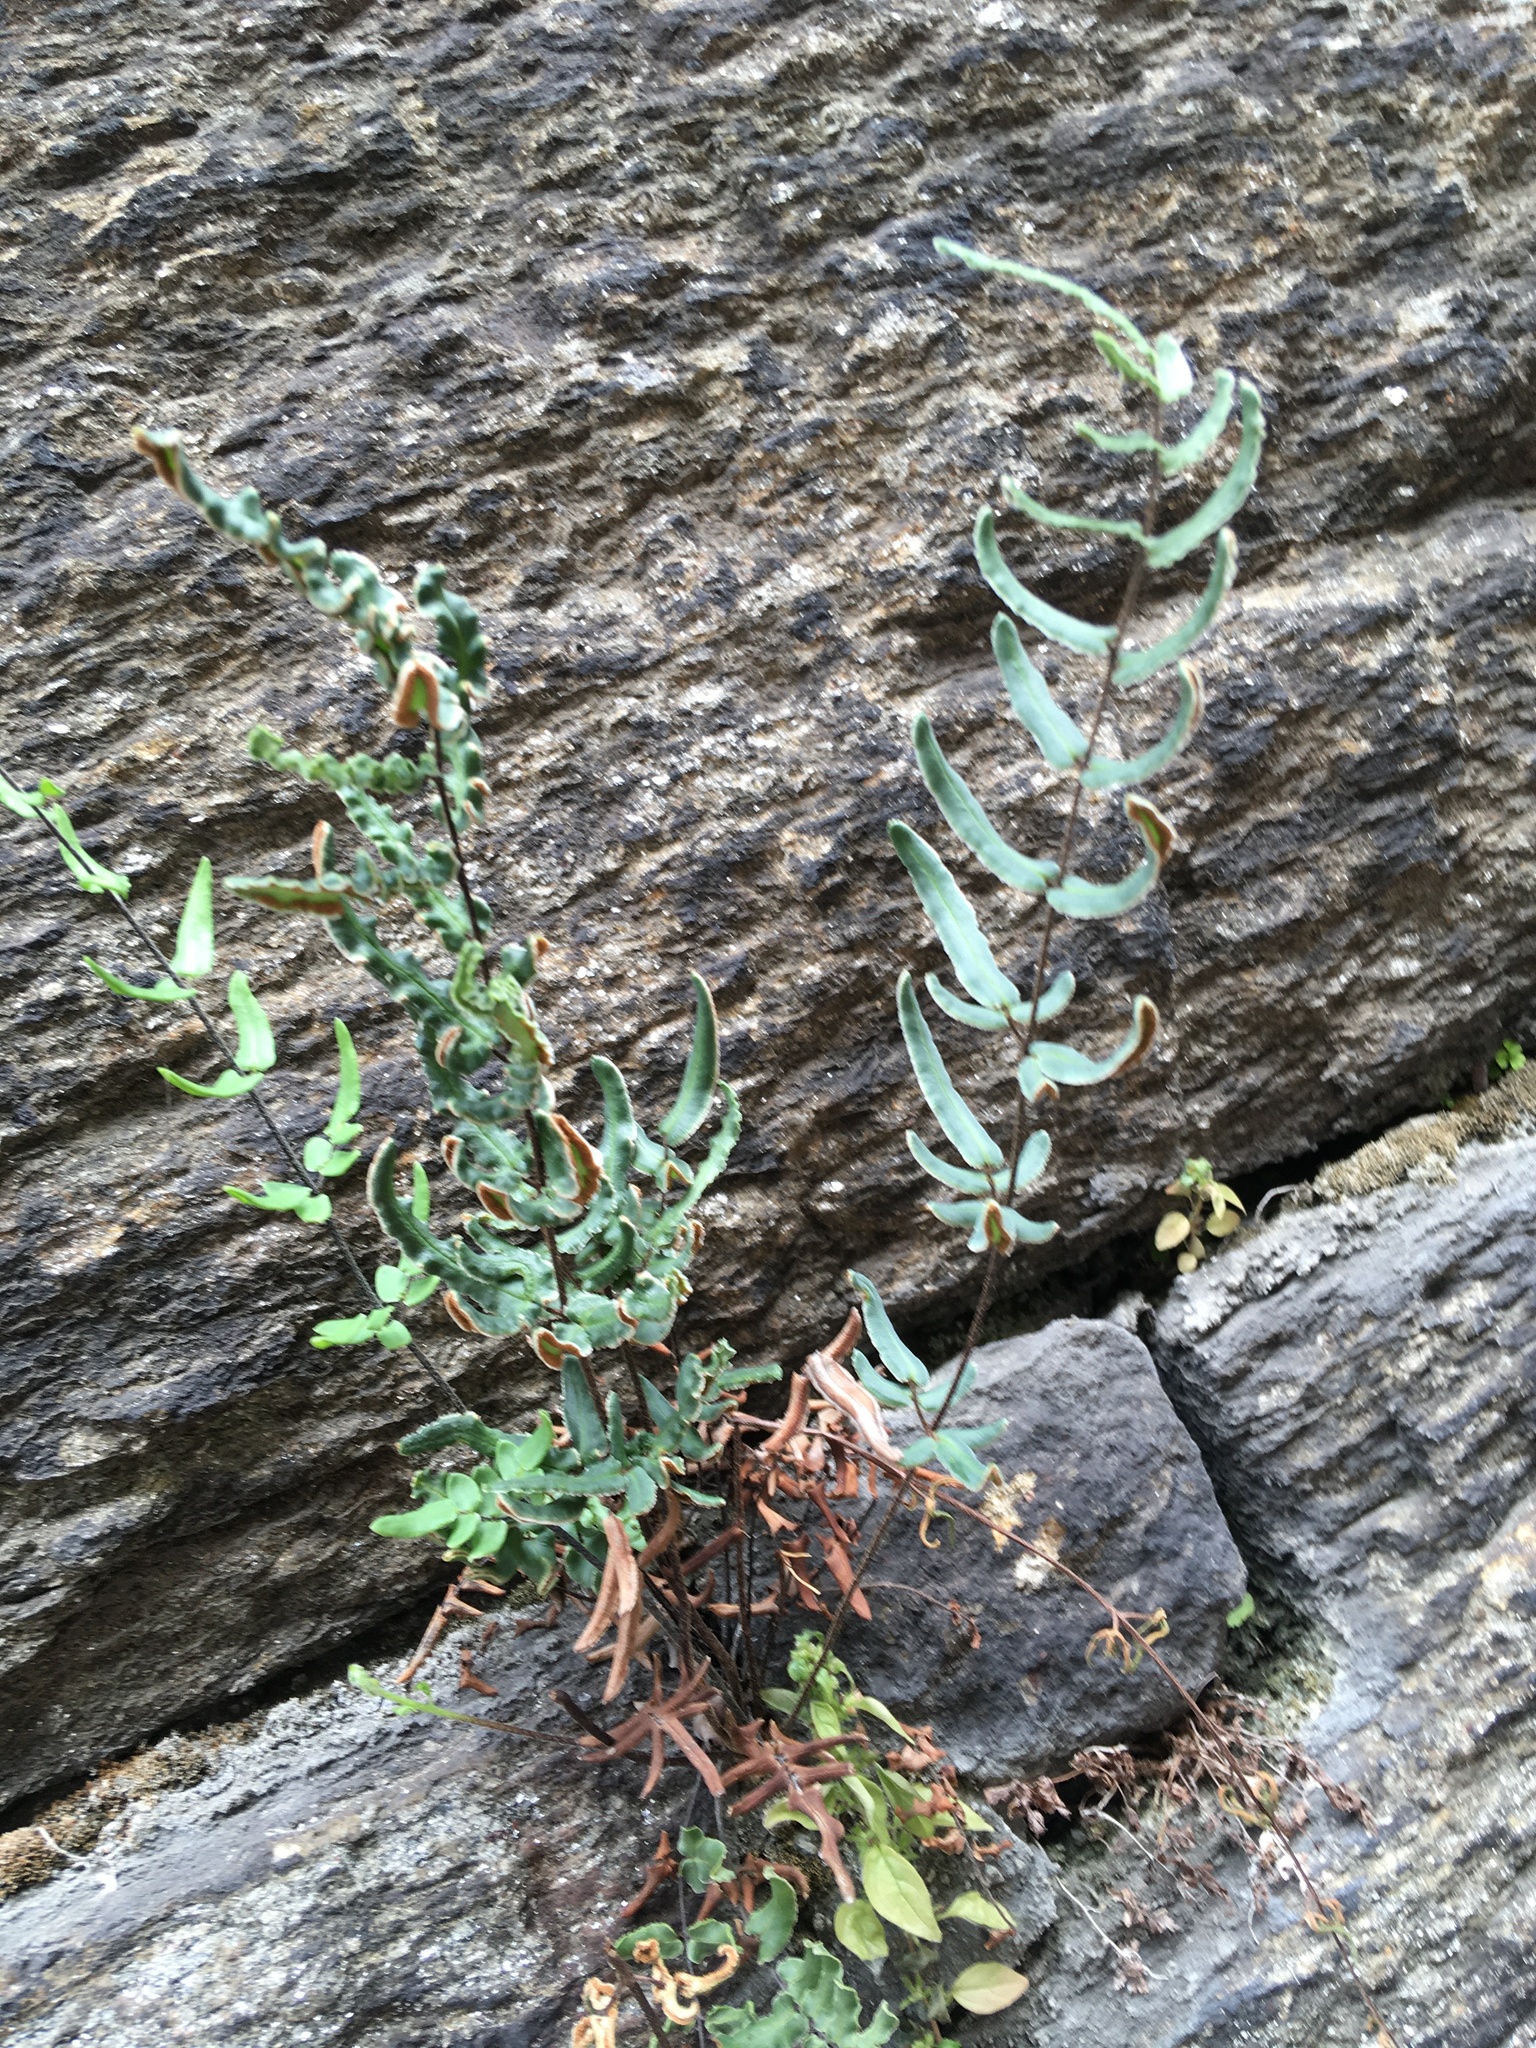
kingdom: Plantae
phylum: Tracheophyta
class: Polypodiopsida
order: Polypodiales
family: Pteridaceae
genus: Pellaea
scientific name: Pellaea atropurpurea
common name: Hairy cliffbrake
